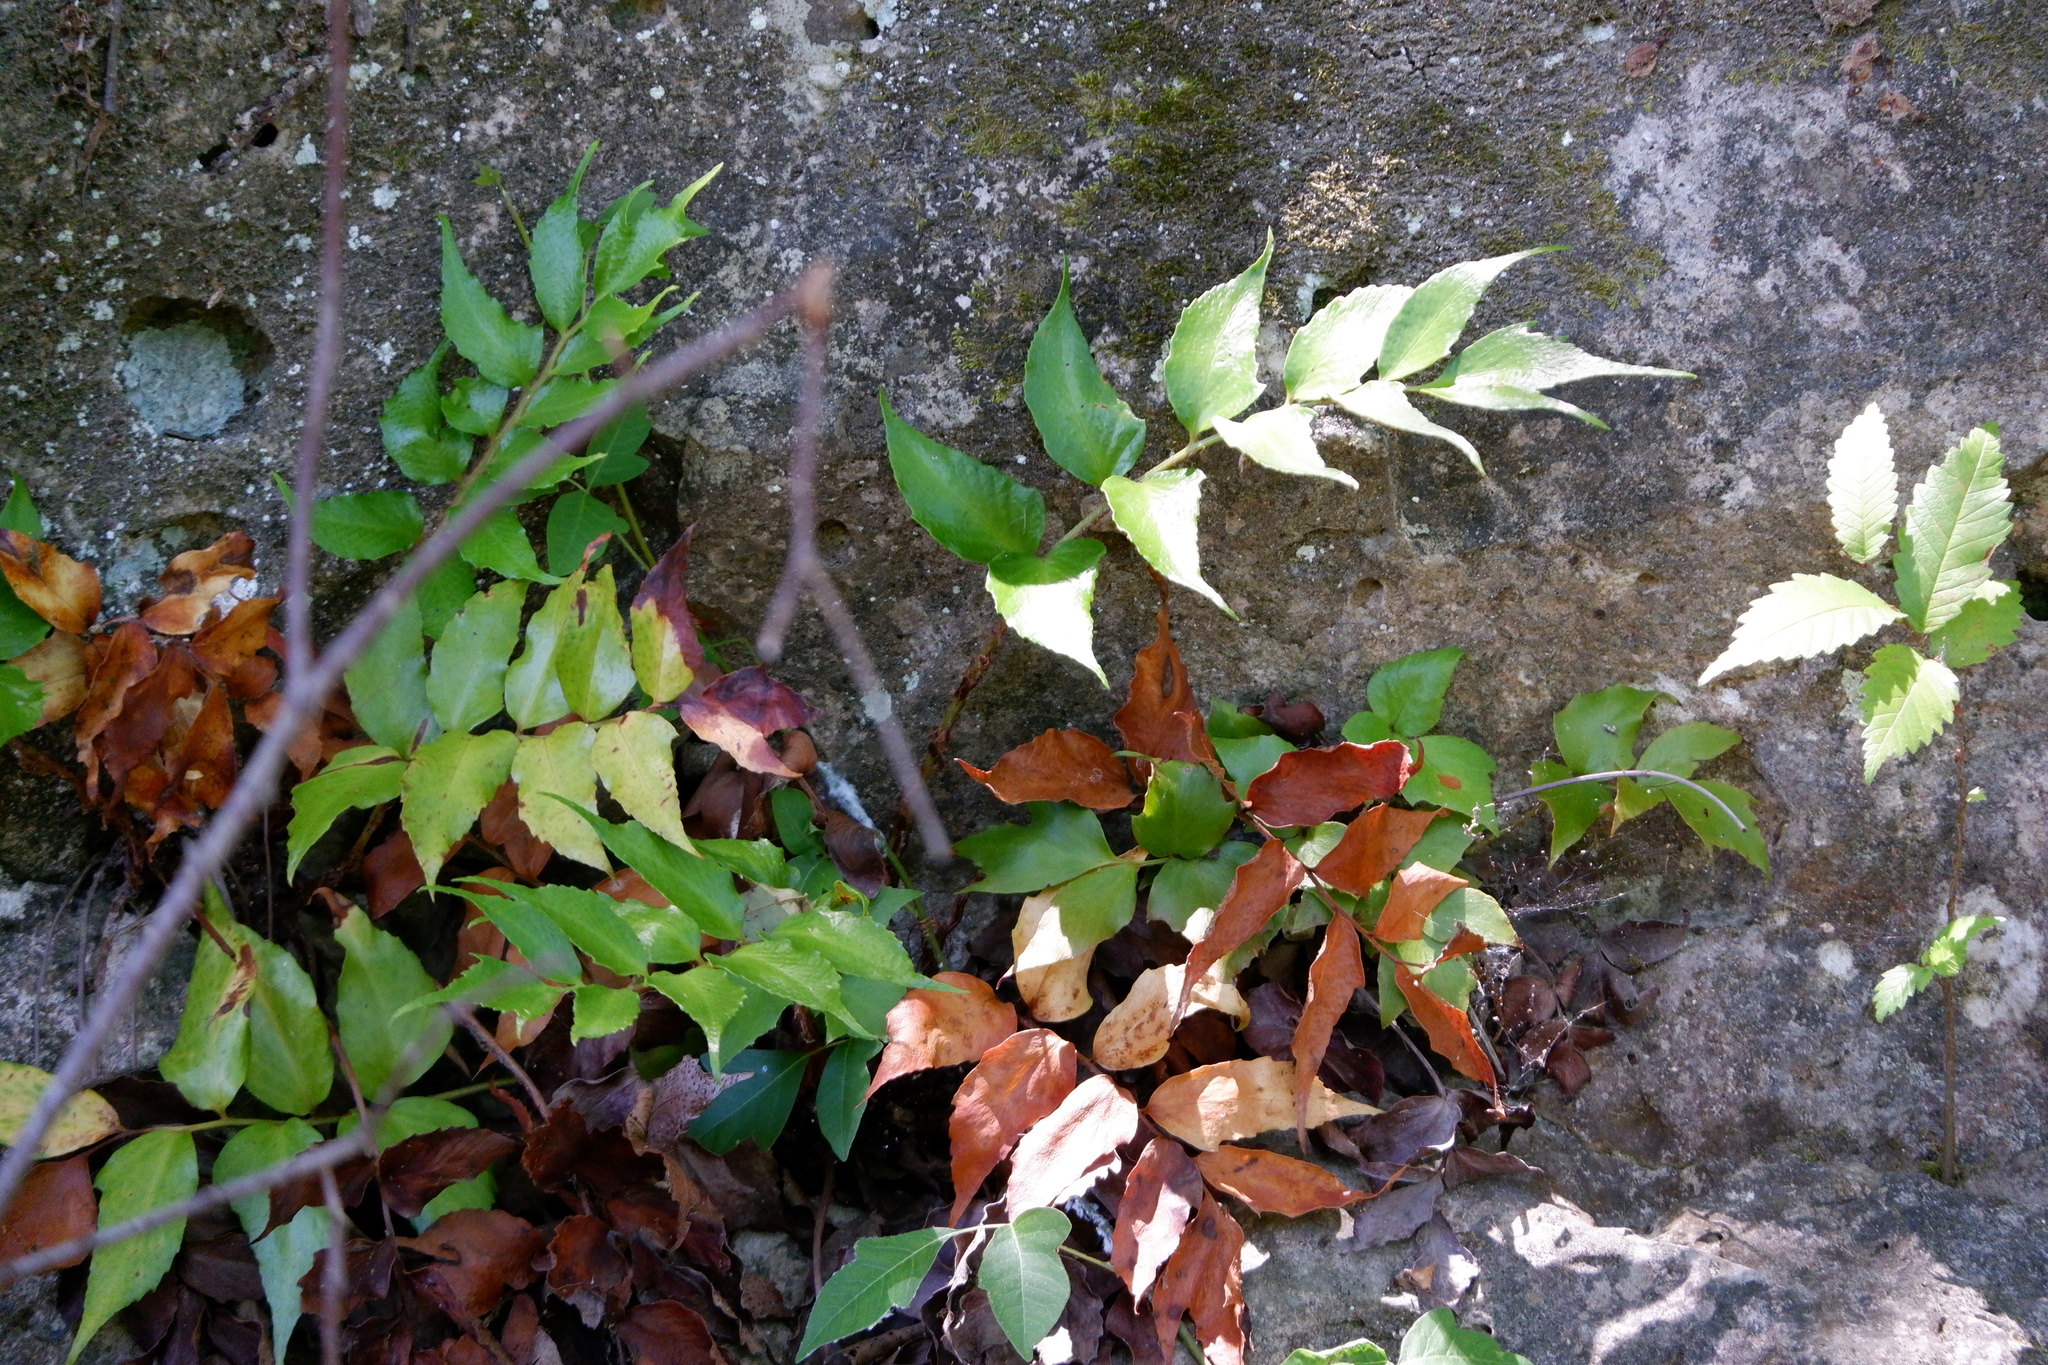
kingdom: Plantae
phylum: Tracheophyta
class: Polypodiopsida
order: Polypodiales
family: Dryopteridaceae
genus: Cyrtomium
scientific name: Cyrtomium falcatum
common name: House holly-fern
